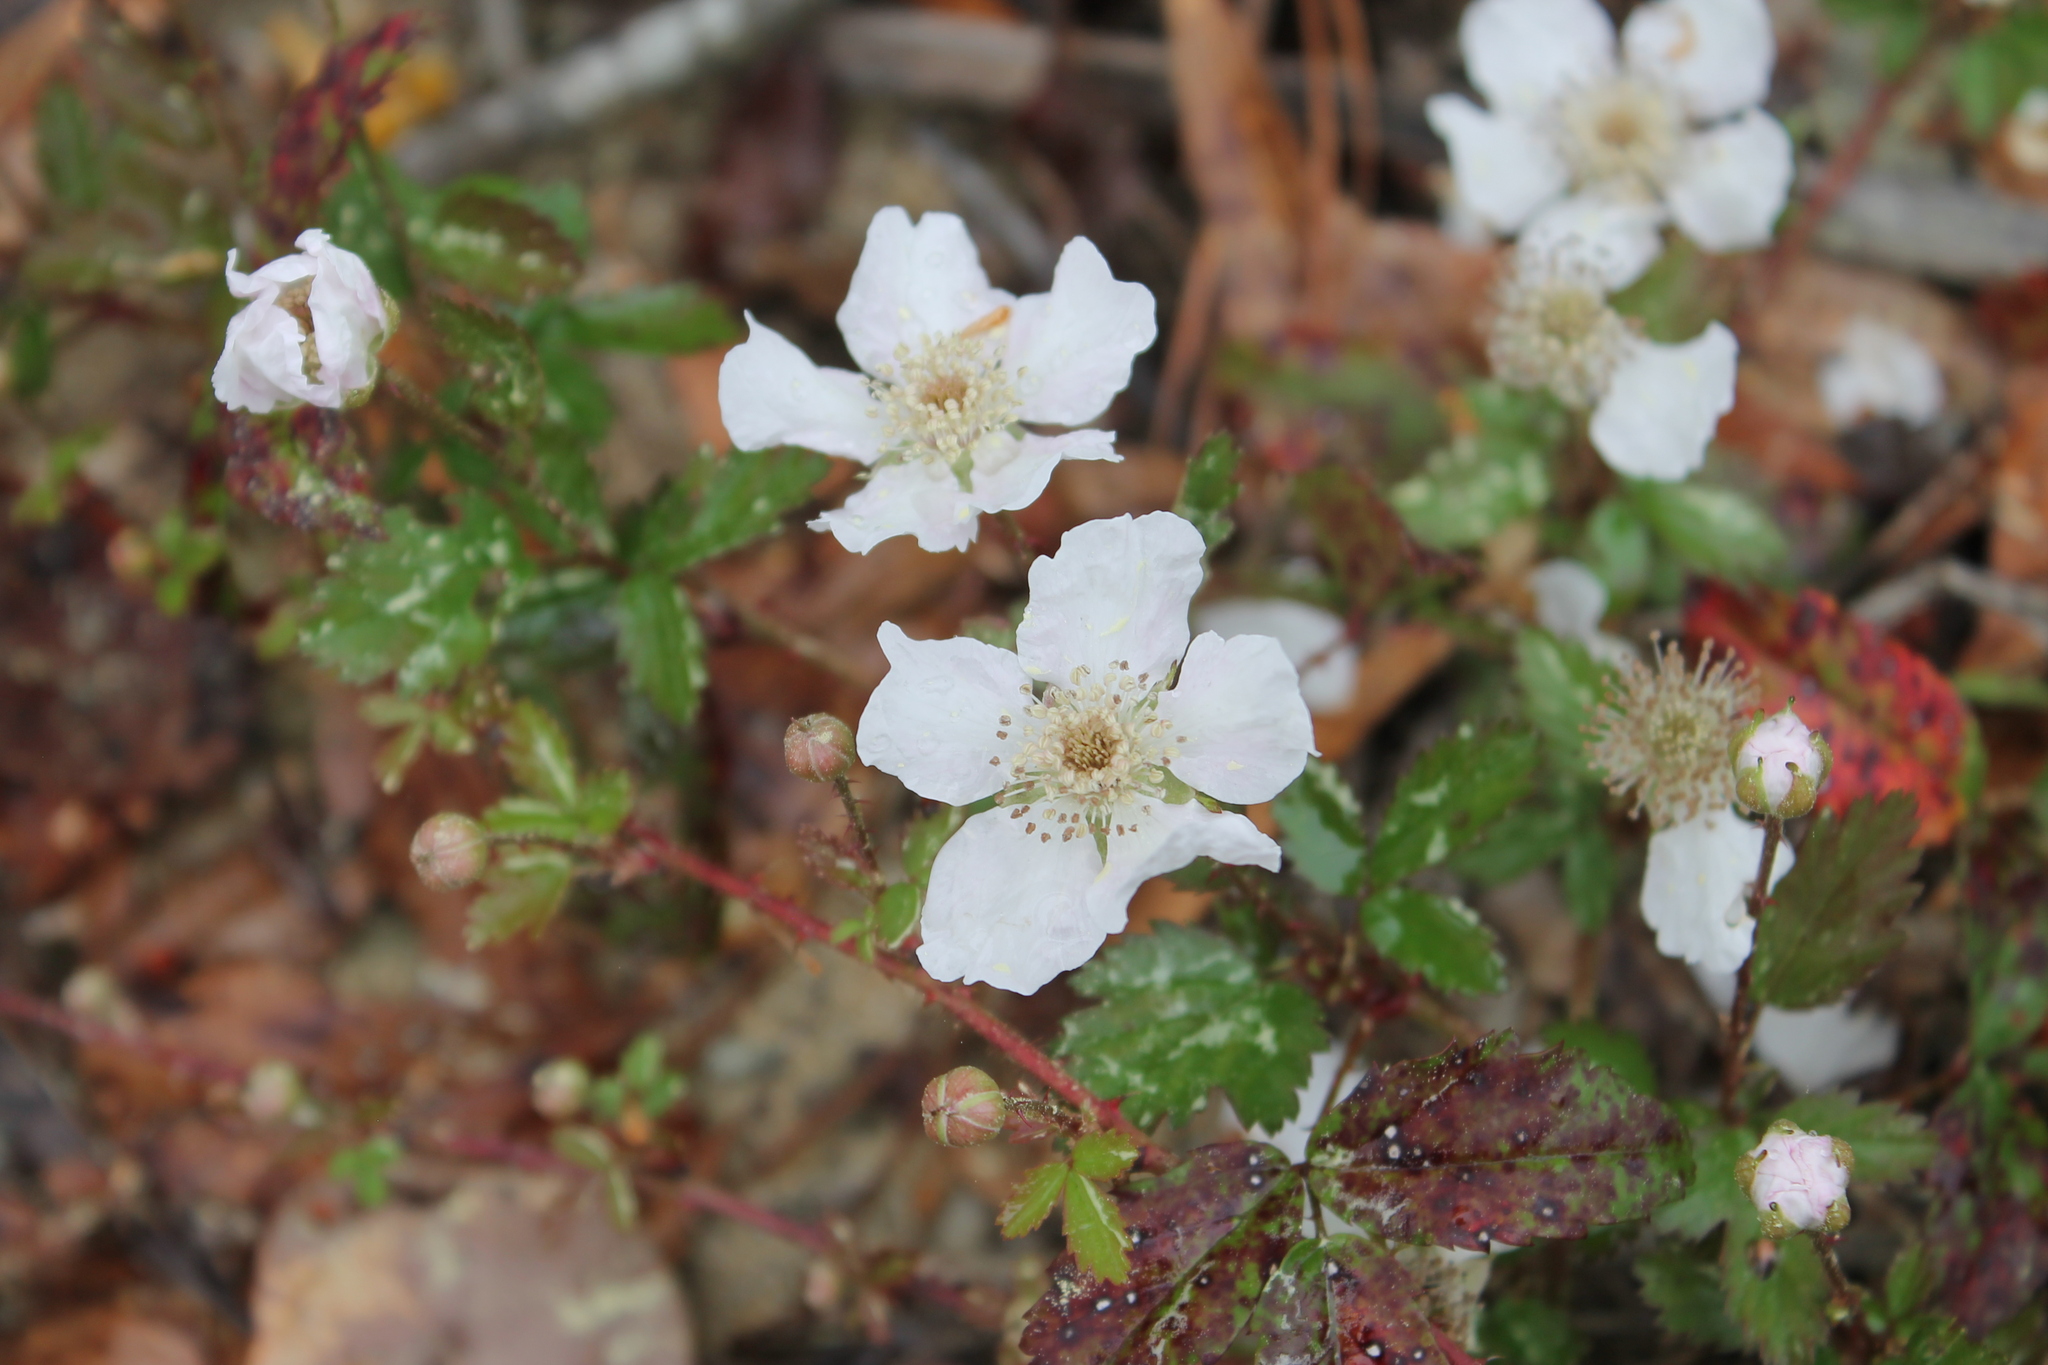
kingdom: Plantae
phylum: Tracheophyta
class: Magnoliopsida
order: Rosales
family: Rosaceae
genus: Rubus
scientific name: Rubus trivialis
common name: Southern dewberry
